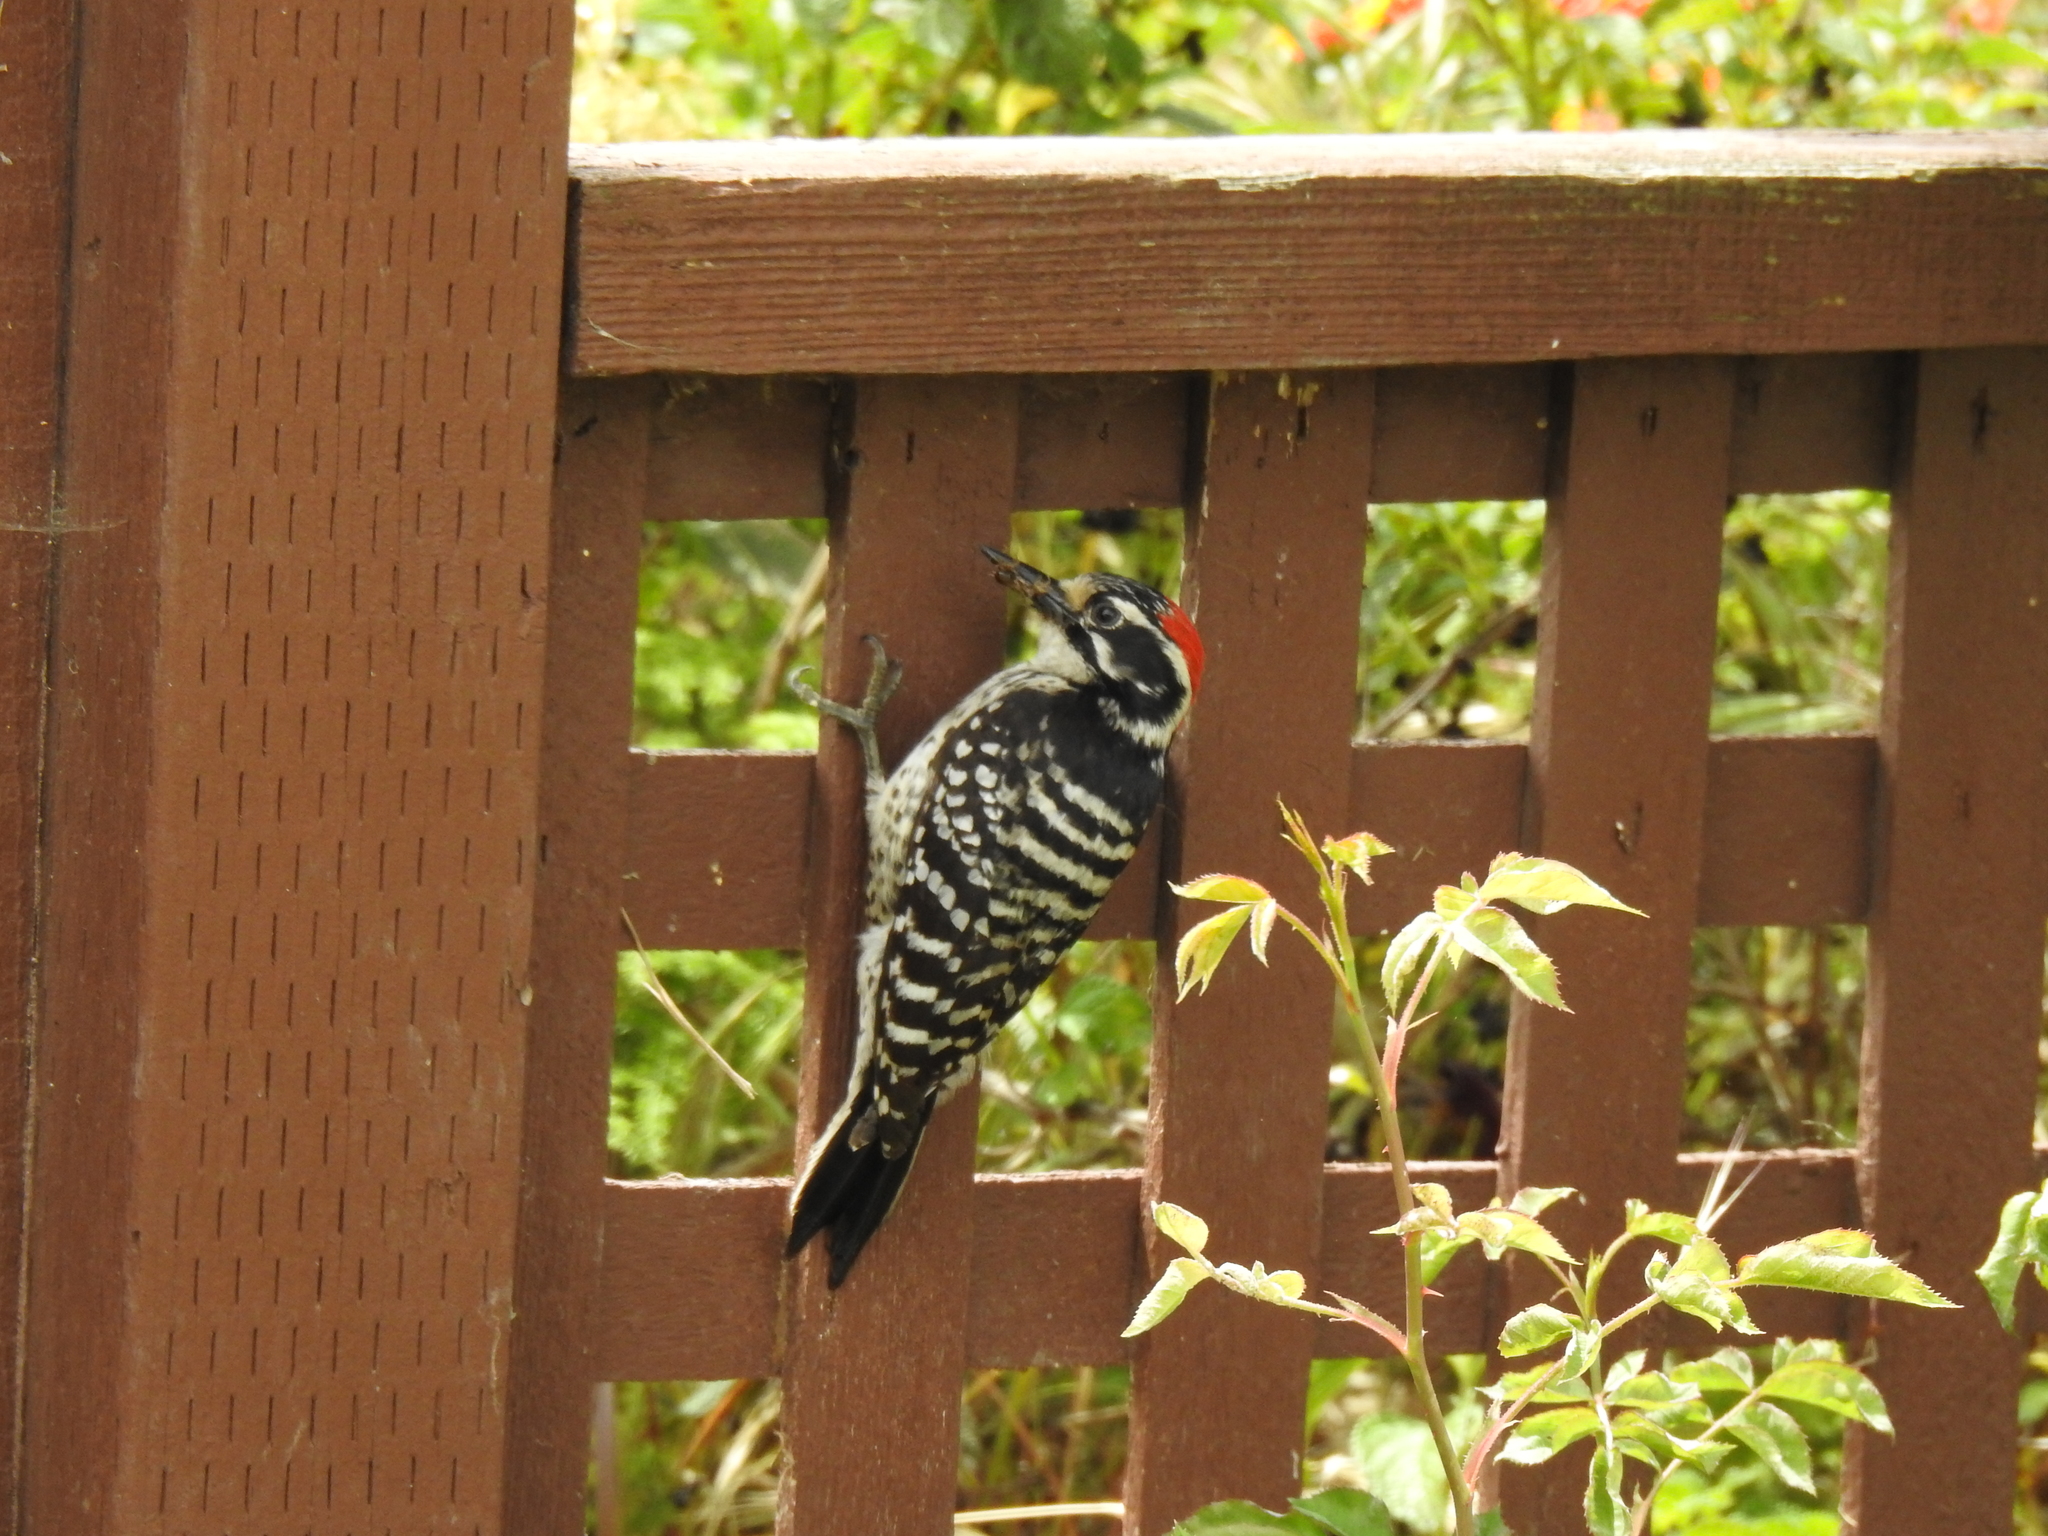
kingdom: Animalia
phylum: Chordata
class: Aves
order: Piciformes
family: Picidae
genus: Dryobates
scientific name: Dryobates nuttallii
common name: Nuttall's woodpecker
